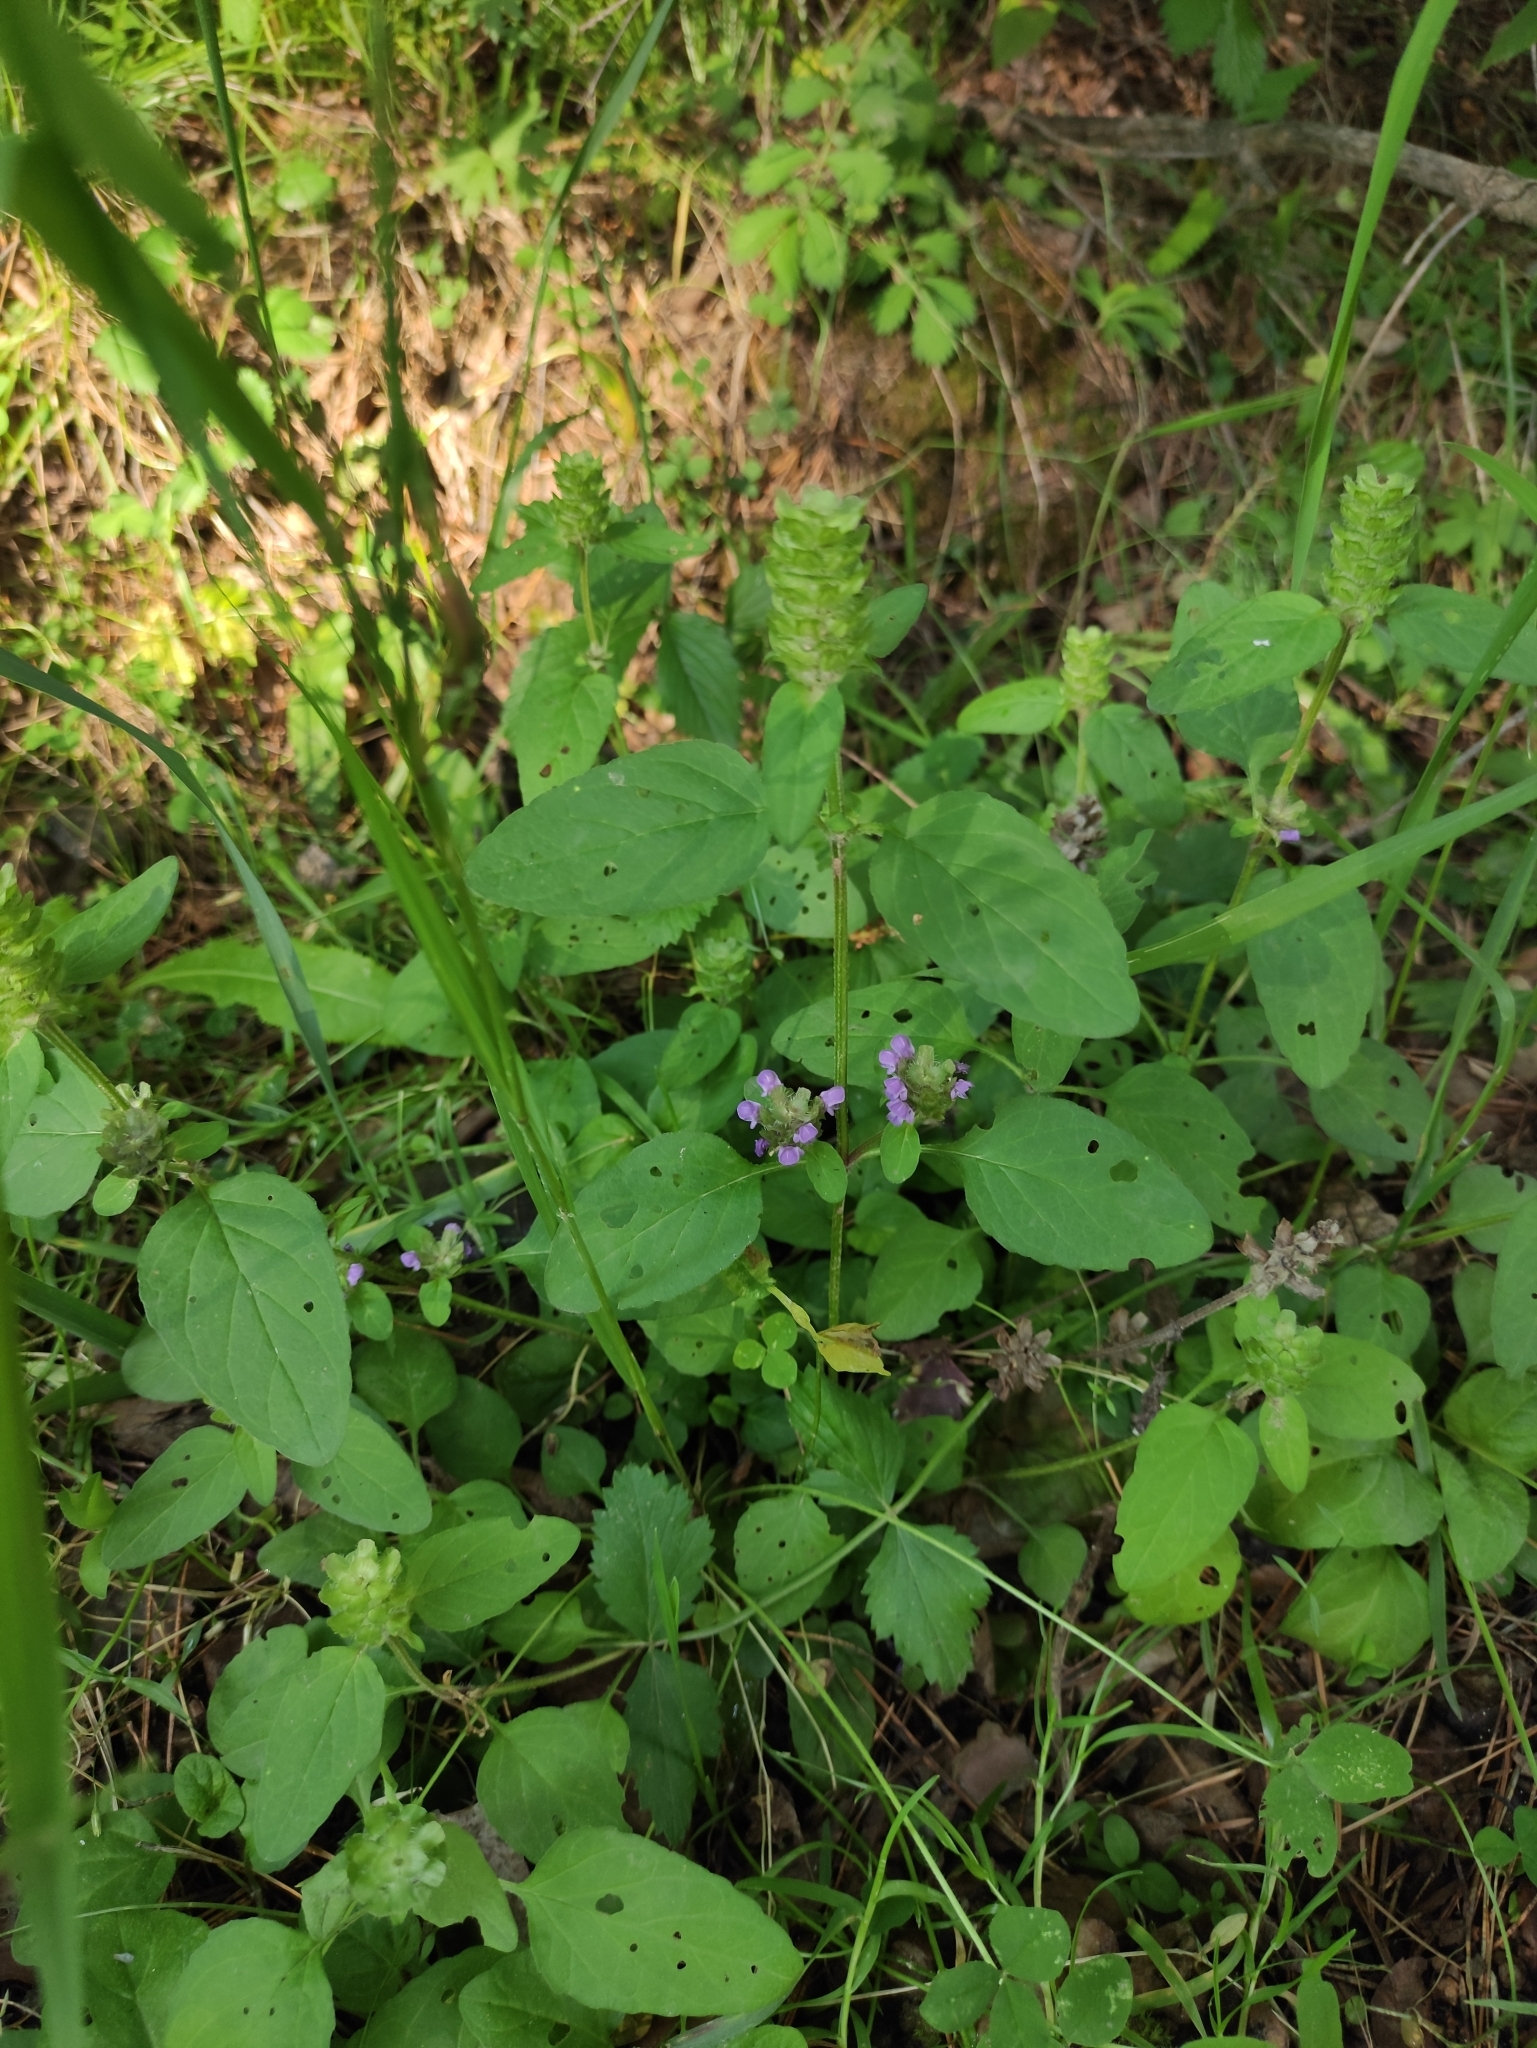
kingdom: Plantae
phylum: Tracheophyta
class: Magnoliopsida
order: Lamiales
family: Lamiaceae
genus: Prunella
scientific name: Prunella vulgaris
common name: Heal-all
